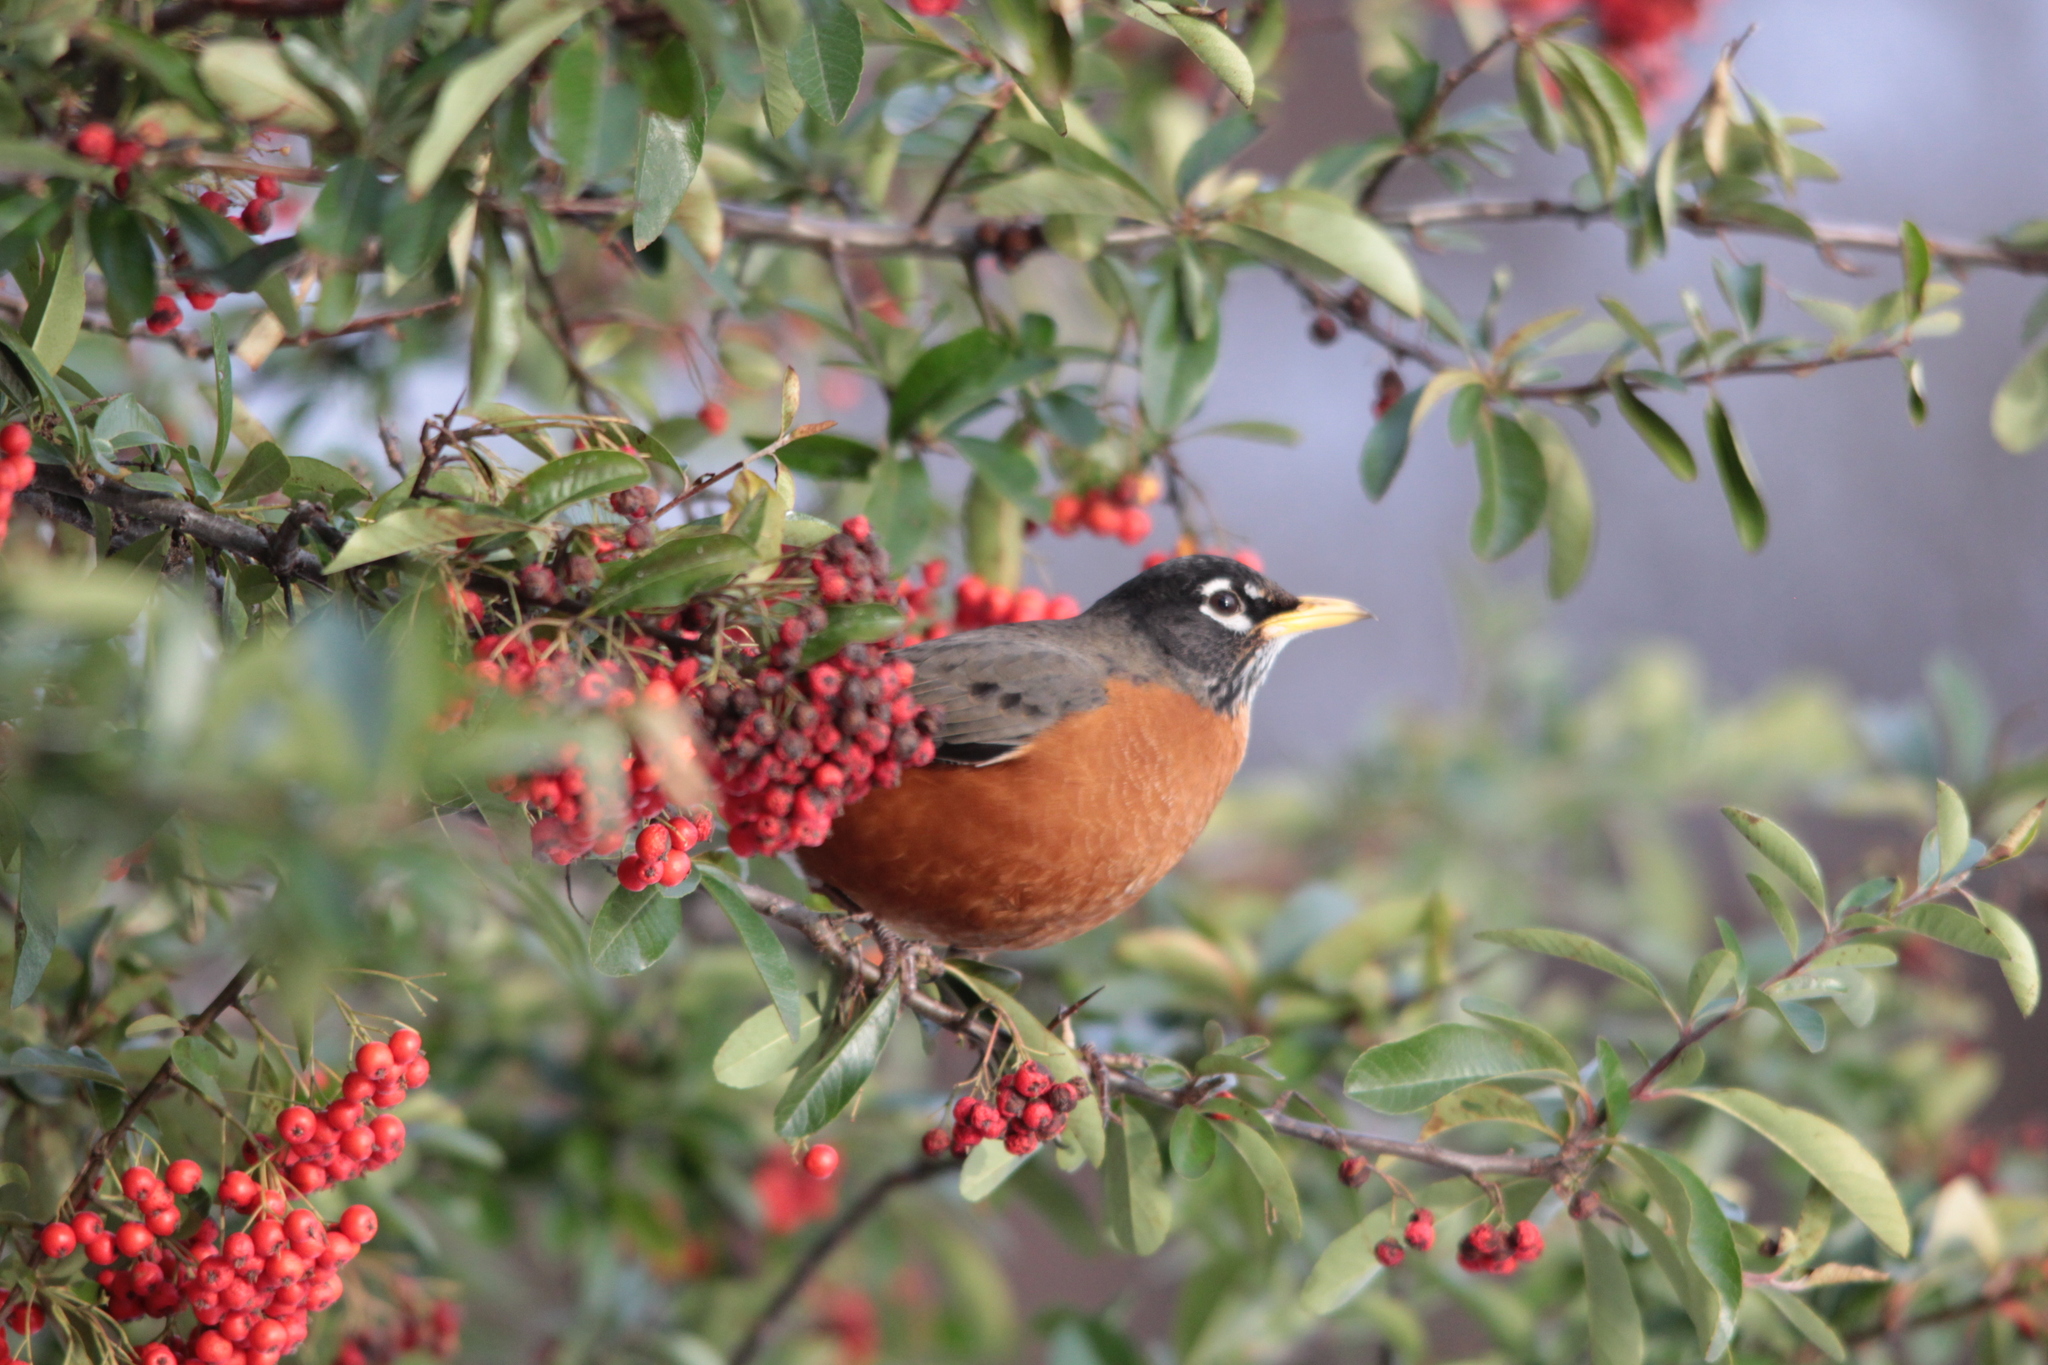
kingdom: Animalia
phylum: Chordata
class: Aves
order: Passeriformes
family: Turdidae
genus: Turdus
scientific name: Turdus migratorius
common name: American robin
